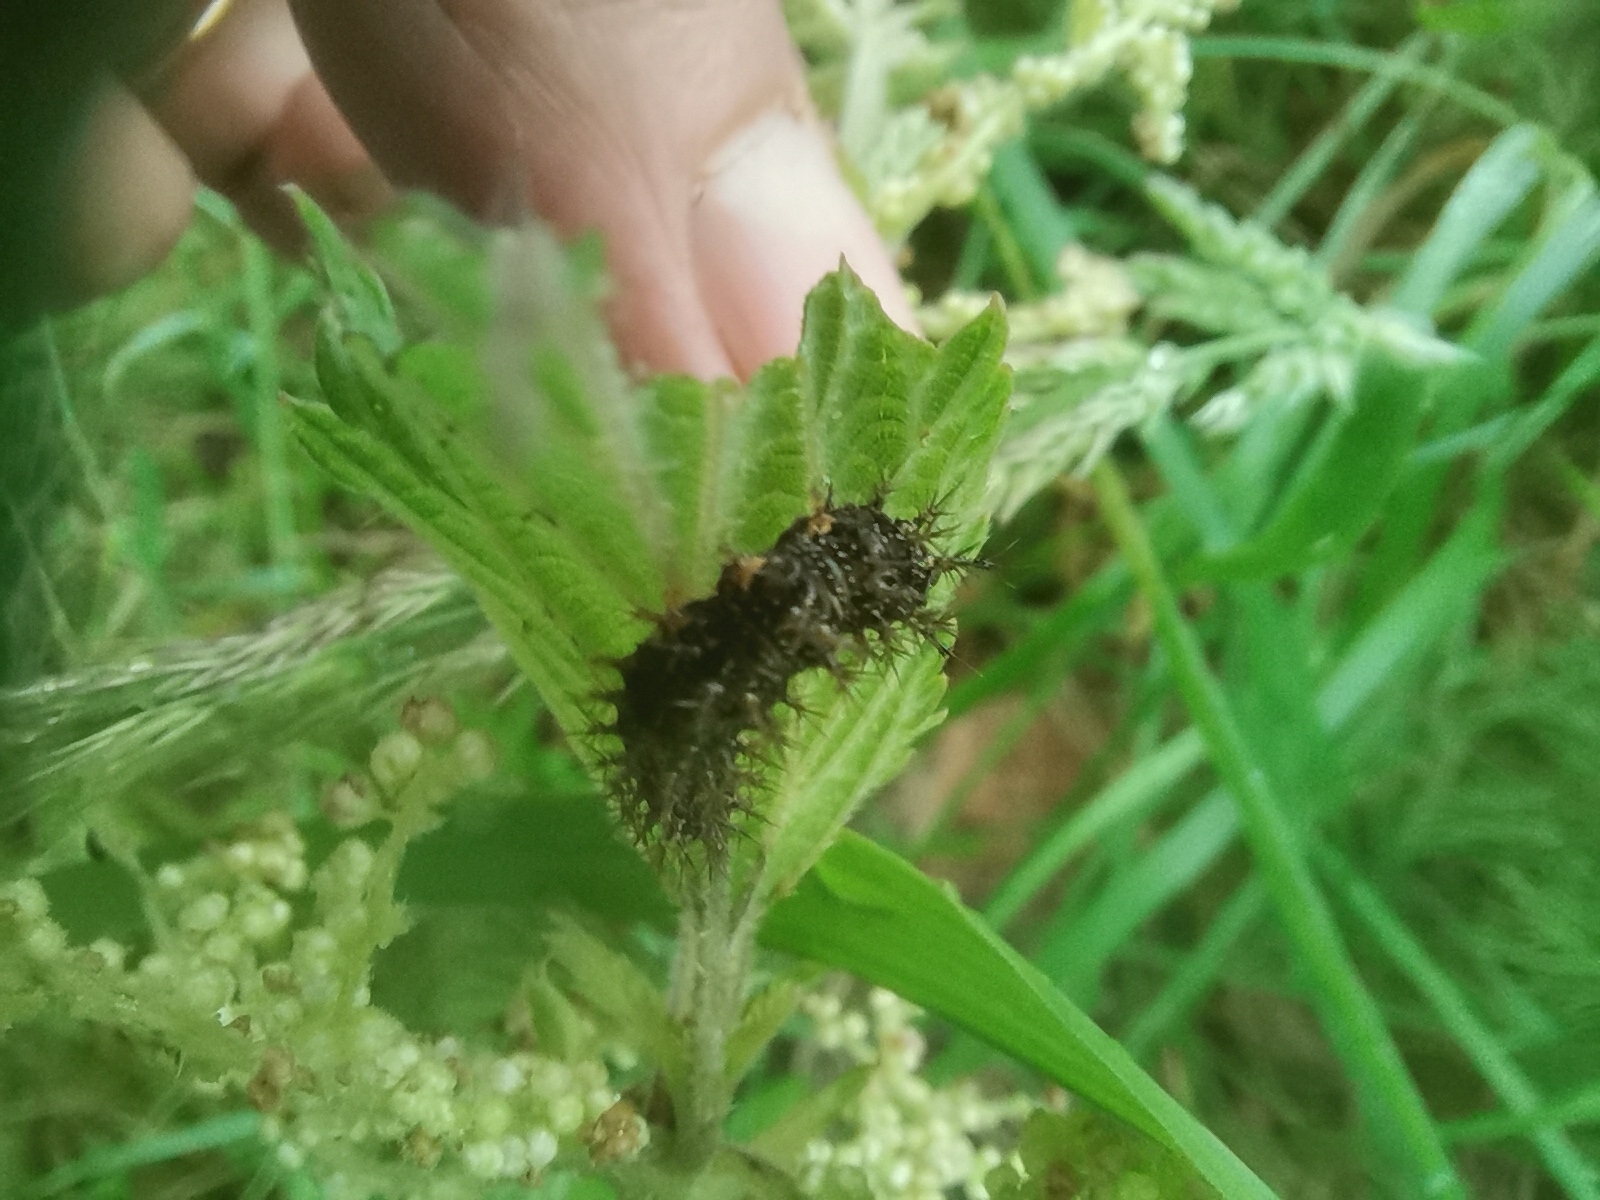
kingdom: Animalia
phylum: Arthropoda
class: Insecta
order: Lepidoptera
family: Nymphalidae
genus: Araschnia
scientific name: Araschnia levana
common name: Map butterfly
